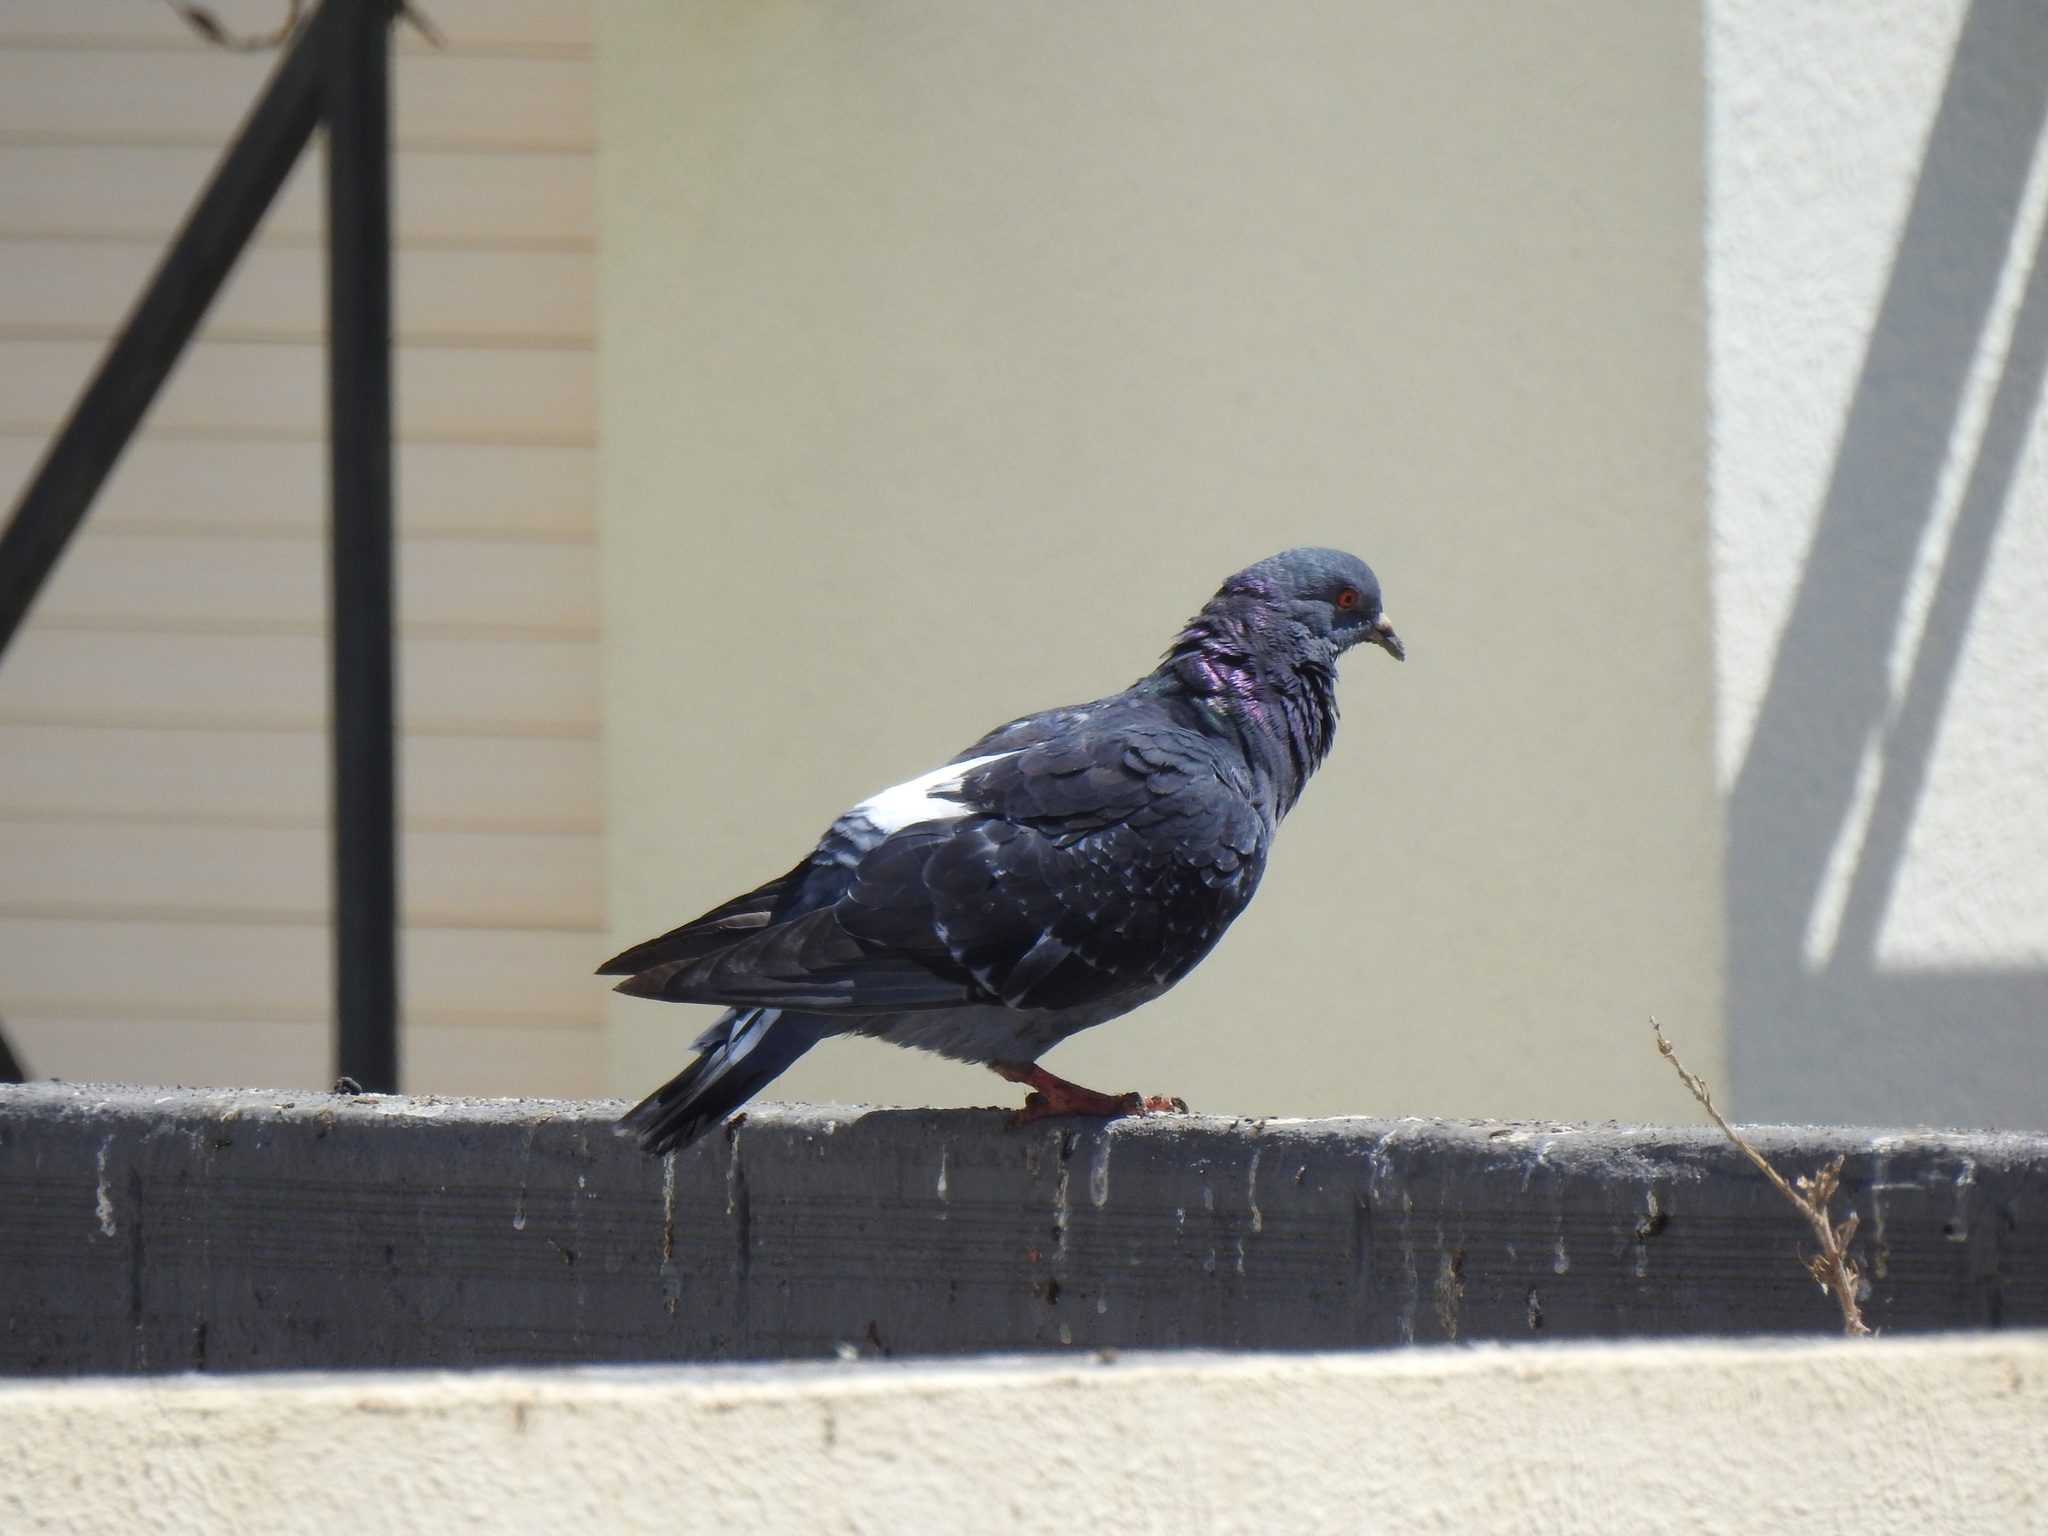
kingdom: Animalia
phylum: Chordata
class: Aves
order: Columbiformes
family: Columbidae
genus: Columba
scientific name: Columba livia
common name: Rock pigeon
